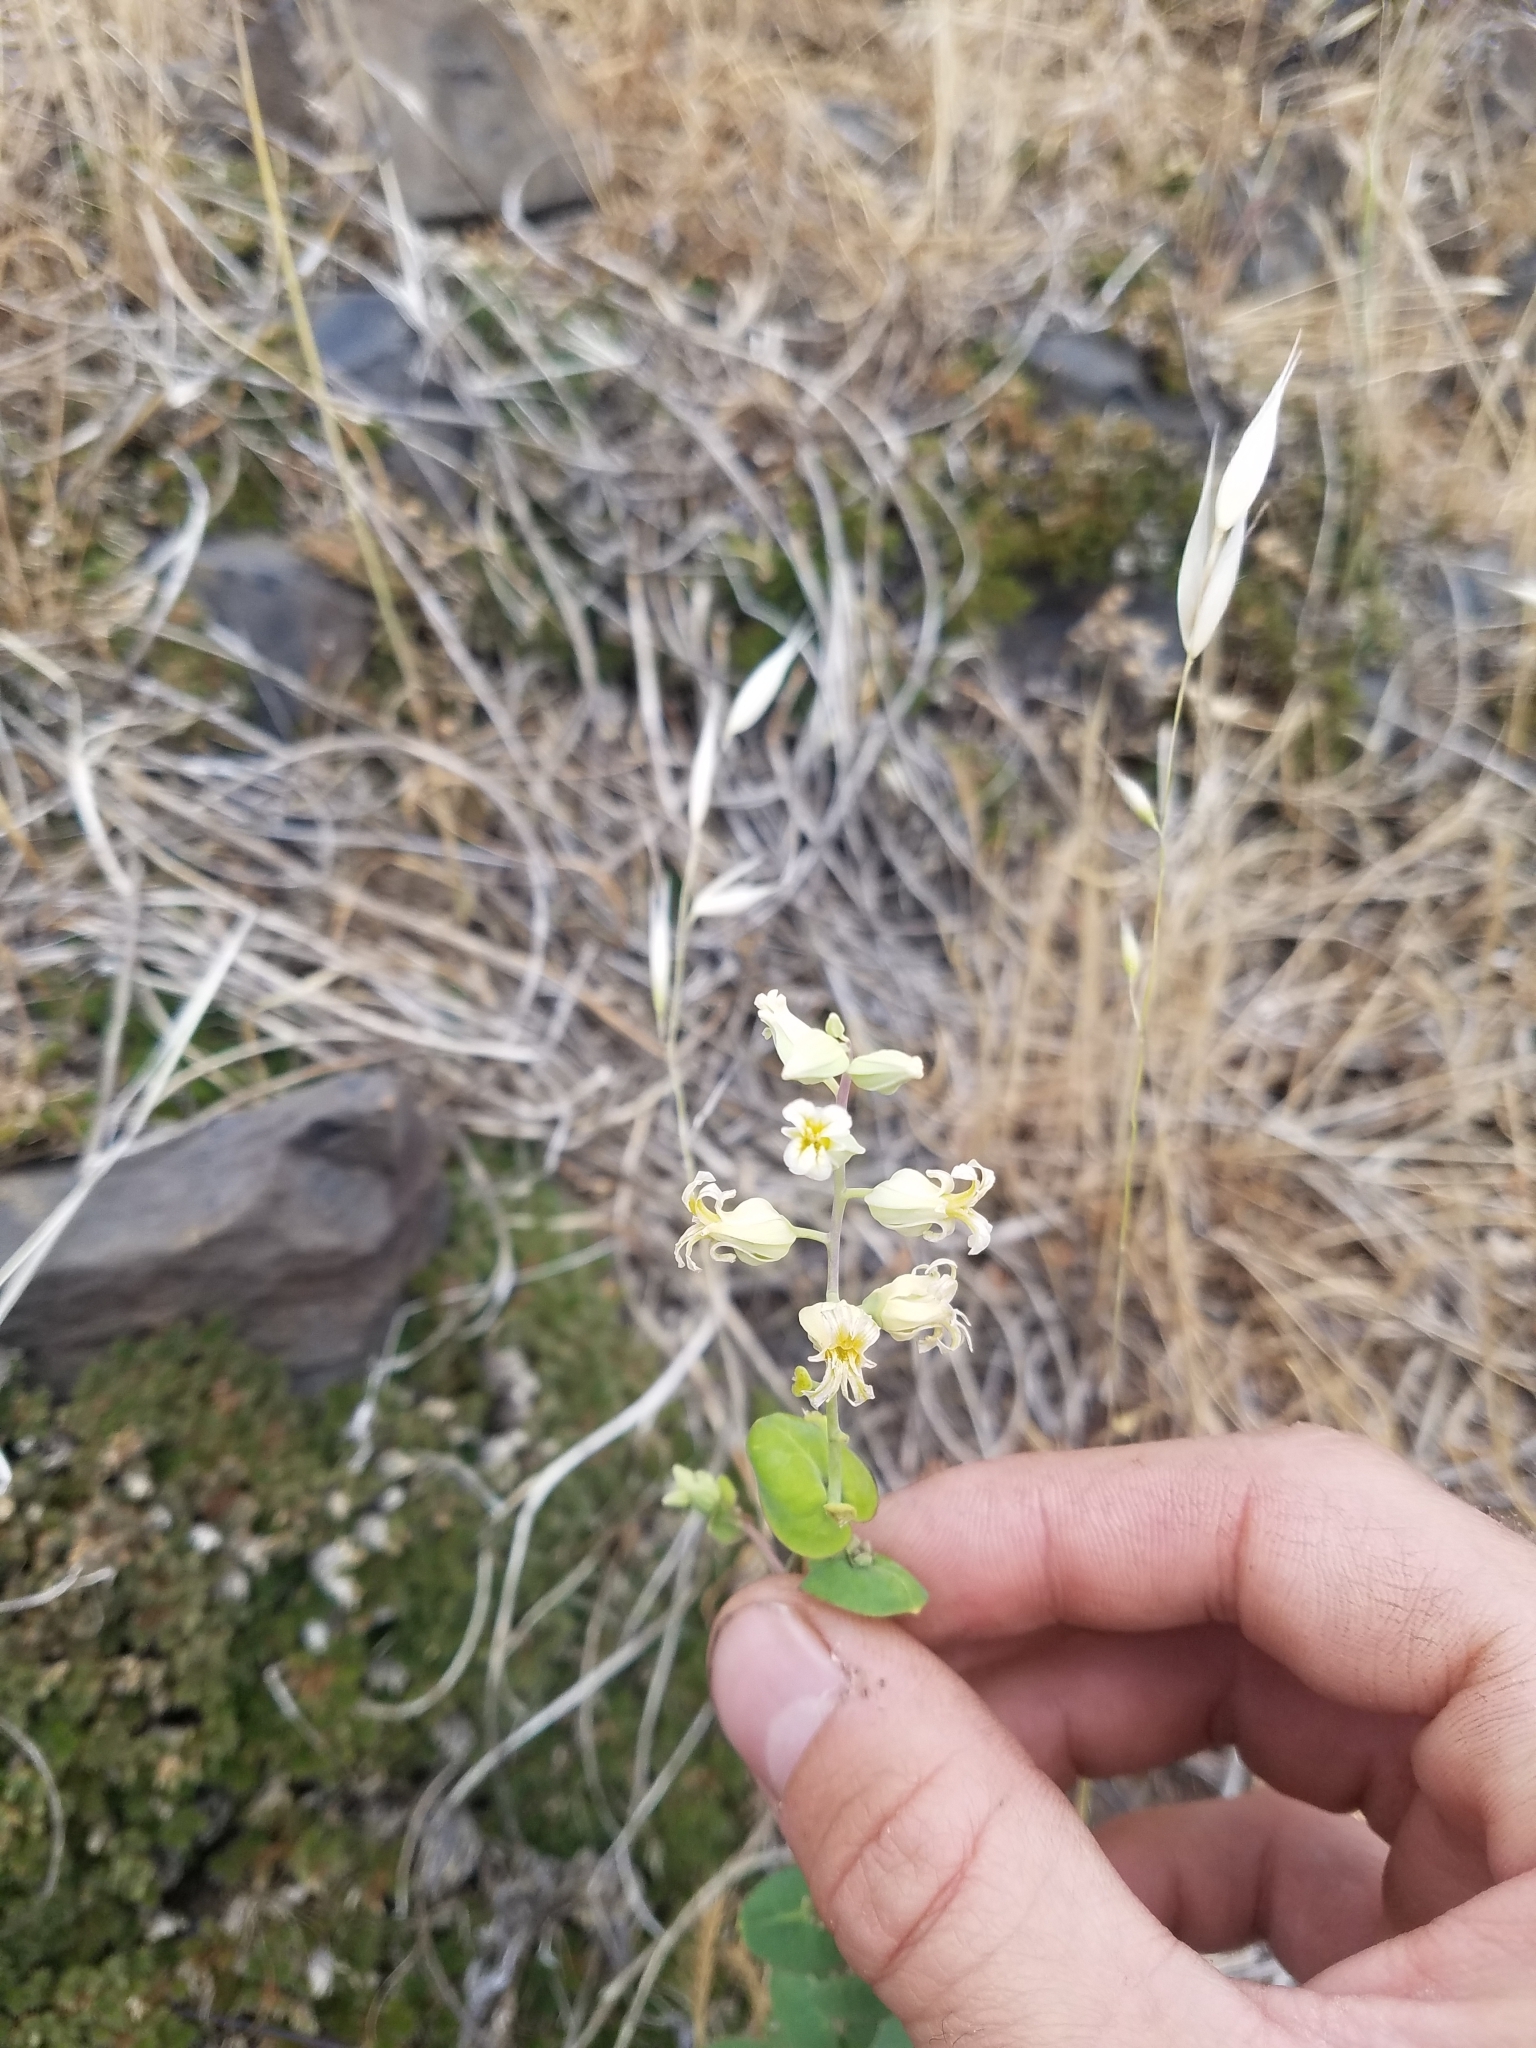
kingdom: Plantae
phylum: Tracheophyta
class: Magnoliopsida
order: Brassicales
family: Brassicaceae
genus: Streptanthus
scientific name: Streptanthus tortuosus
